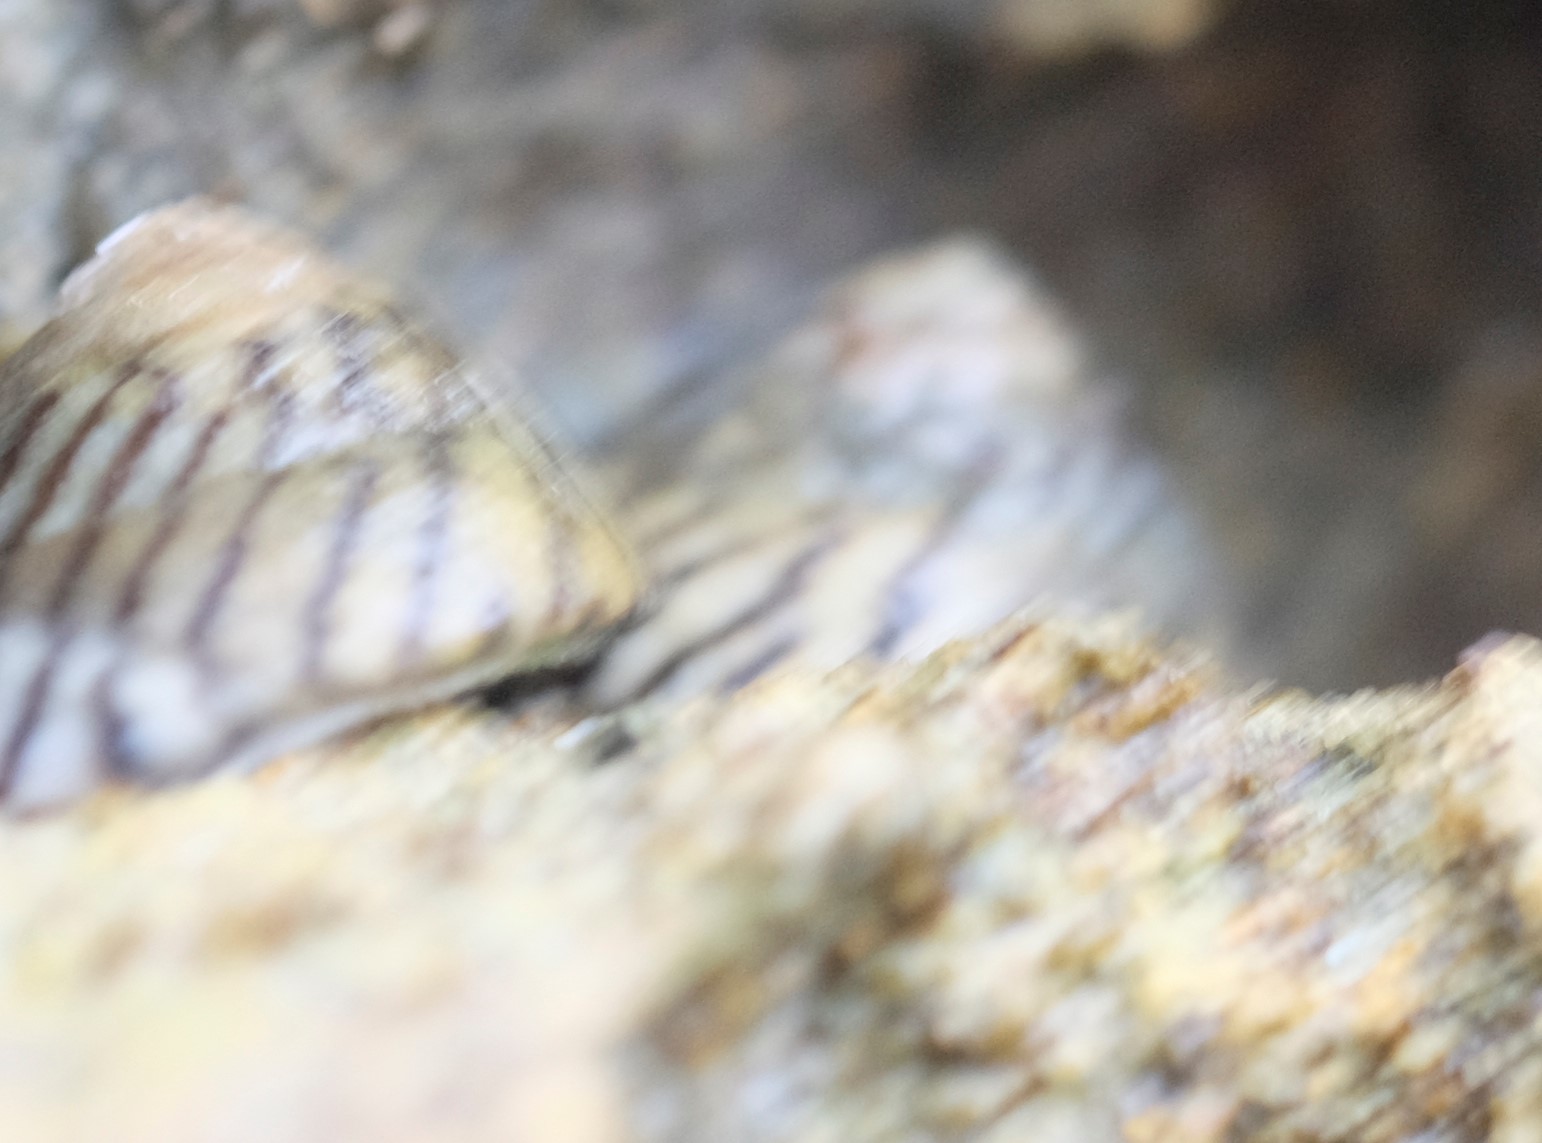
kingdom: Animalia
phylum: Mollusca
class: Gastropoda
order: Littorinimorpha
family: Littorinidae
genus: Bembicium
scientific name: Bembicium nanum
